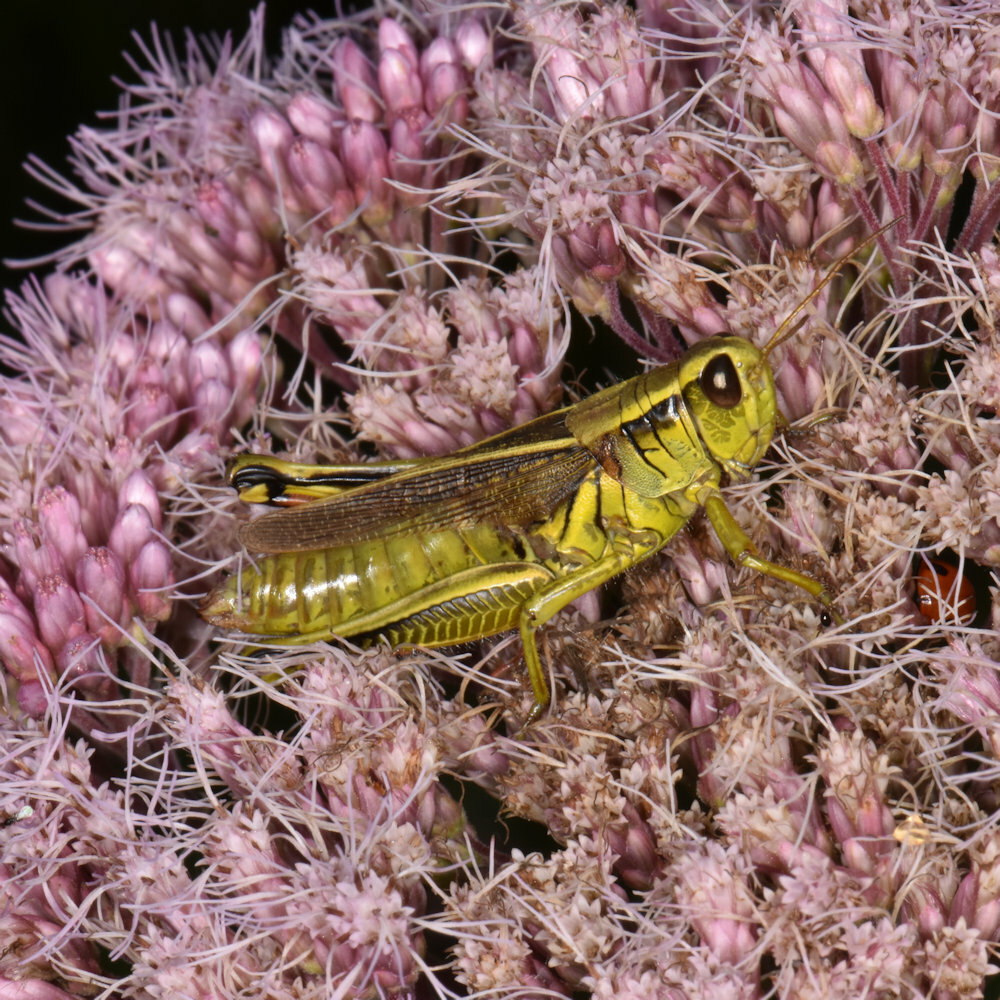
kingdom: Animalia
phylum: Arthropoda
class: Insecta
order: Orthoptera
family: Acrididae
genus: Melanoplus
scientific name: Melanoplus bivittatus
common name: Two-striped grasshopper
